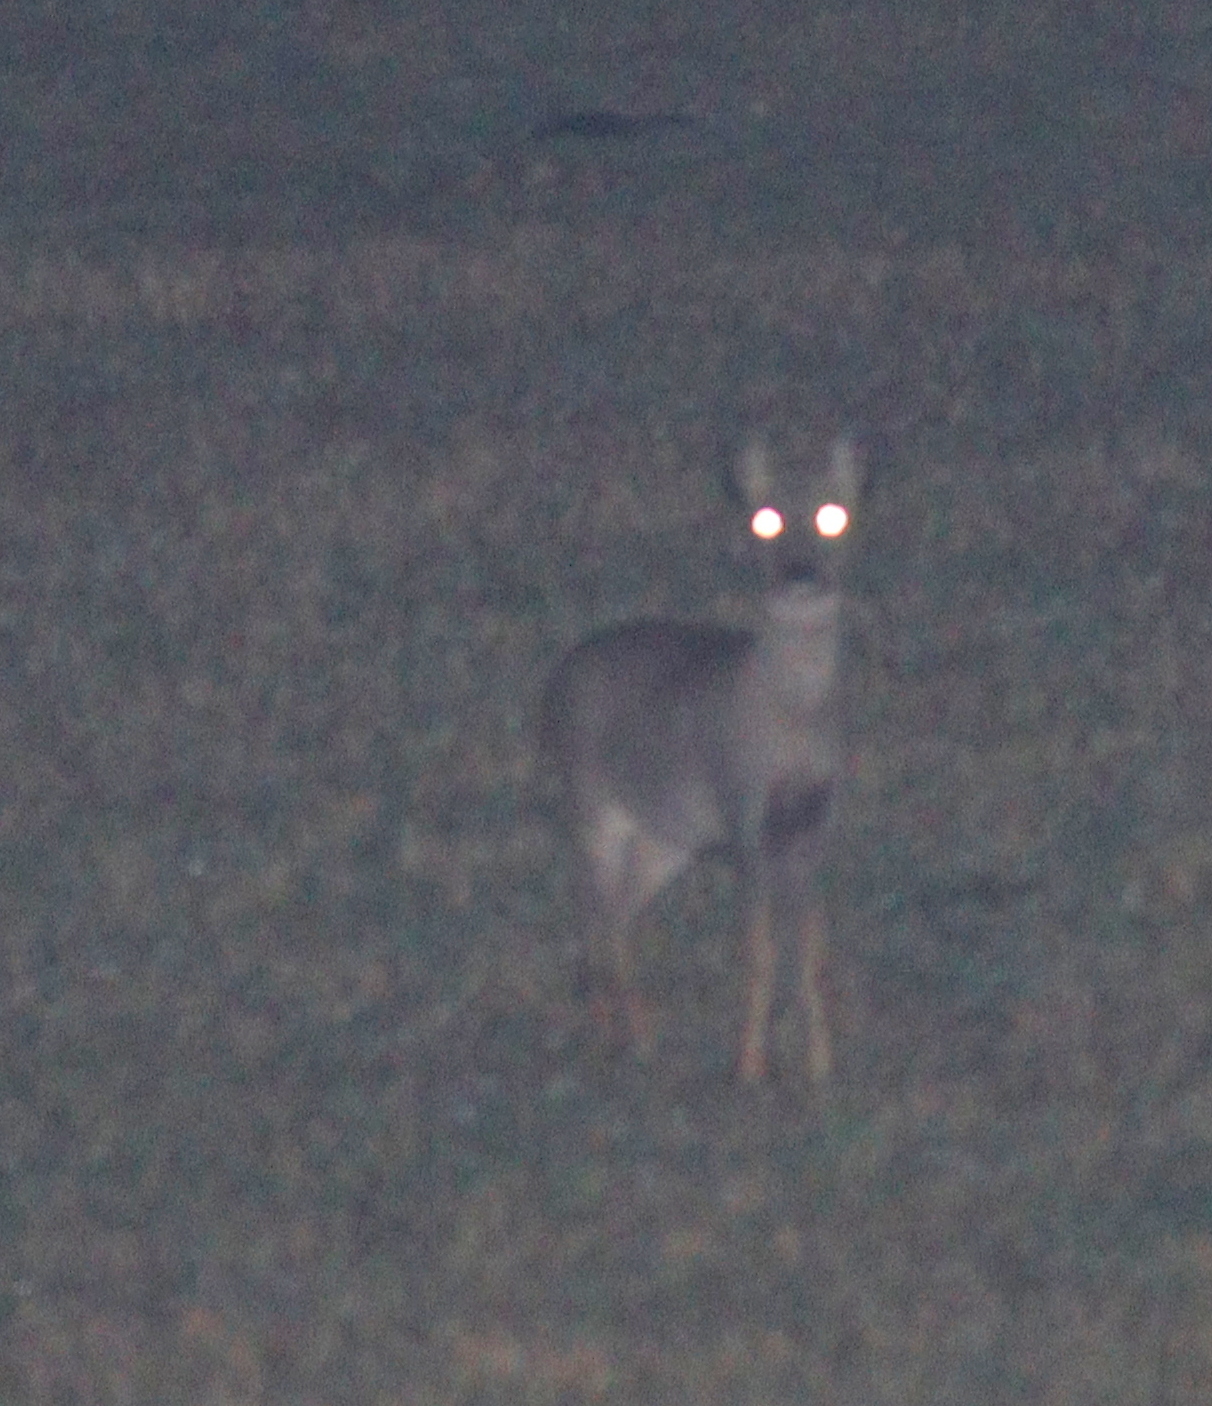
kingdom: Animalia
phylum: Chordata
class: Mammalia
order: Artiodactyla
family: Cervidae
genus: Capreolus
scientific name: Capreolus capreolus
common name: Western roe deer
